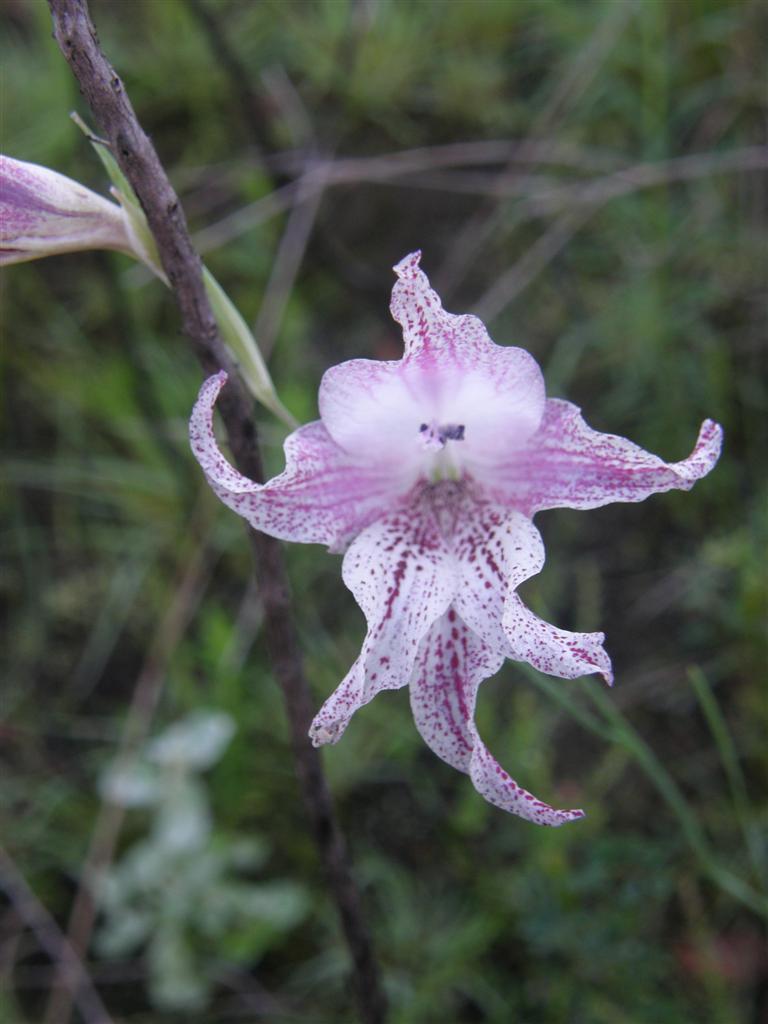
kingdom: Plantae
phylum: Tracheophyta
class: Liliopsida
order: Asparagales
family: Iridaceae
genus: Gladiolus
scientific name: Gladiolus maculatus
